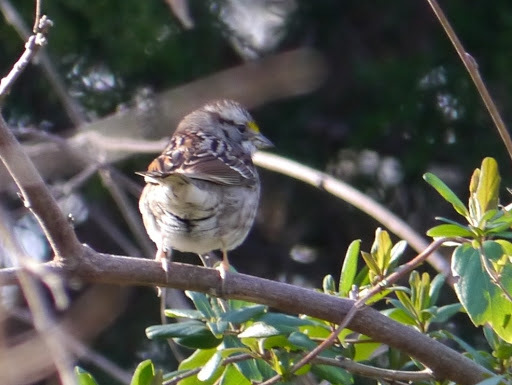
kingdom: Animalia
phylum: Chordata
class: Aves
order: Passeriformes
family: Passerellidae
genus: Zonotrichia
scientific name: Zonotrichia albicollis
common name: White-throated sparrow
